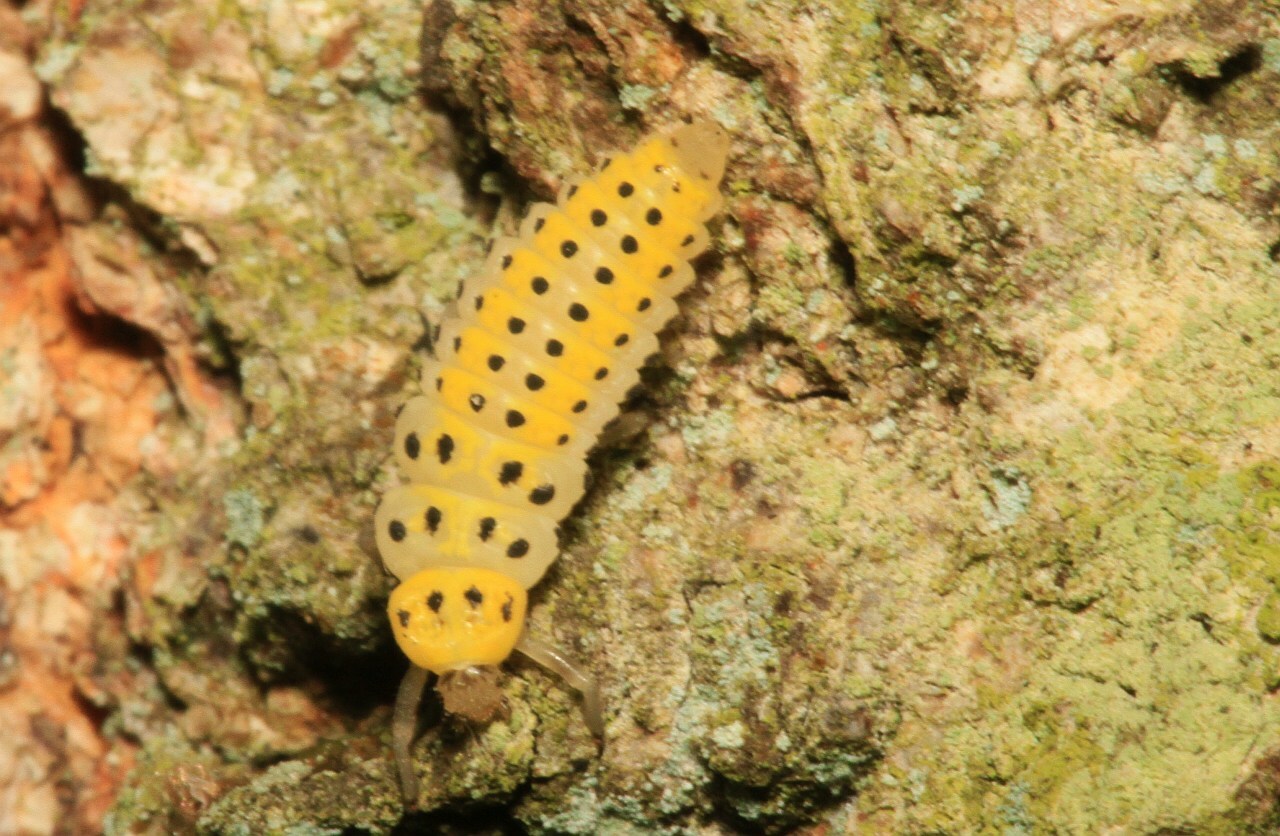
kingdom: Animalia
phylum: Arthropoda
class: Insecta
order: Coleoptera
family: Coccinellidae
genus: Halyzia
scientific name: Halyzia sedecimguttata
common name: Orange ladybird
